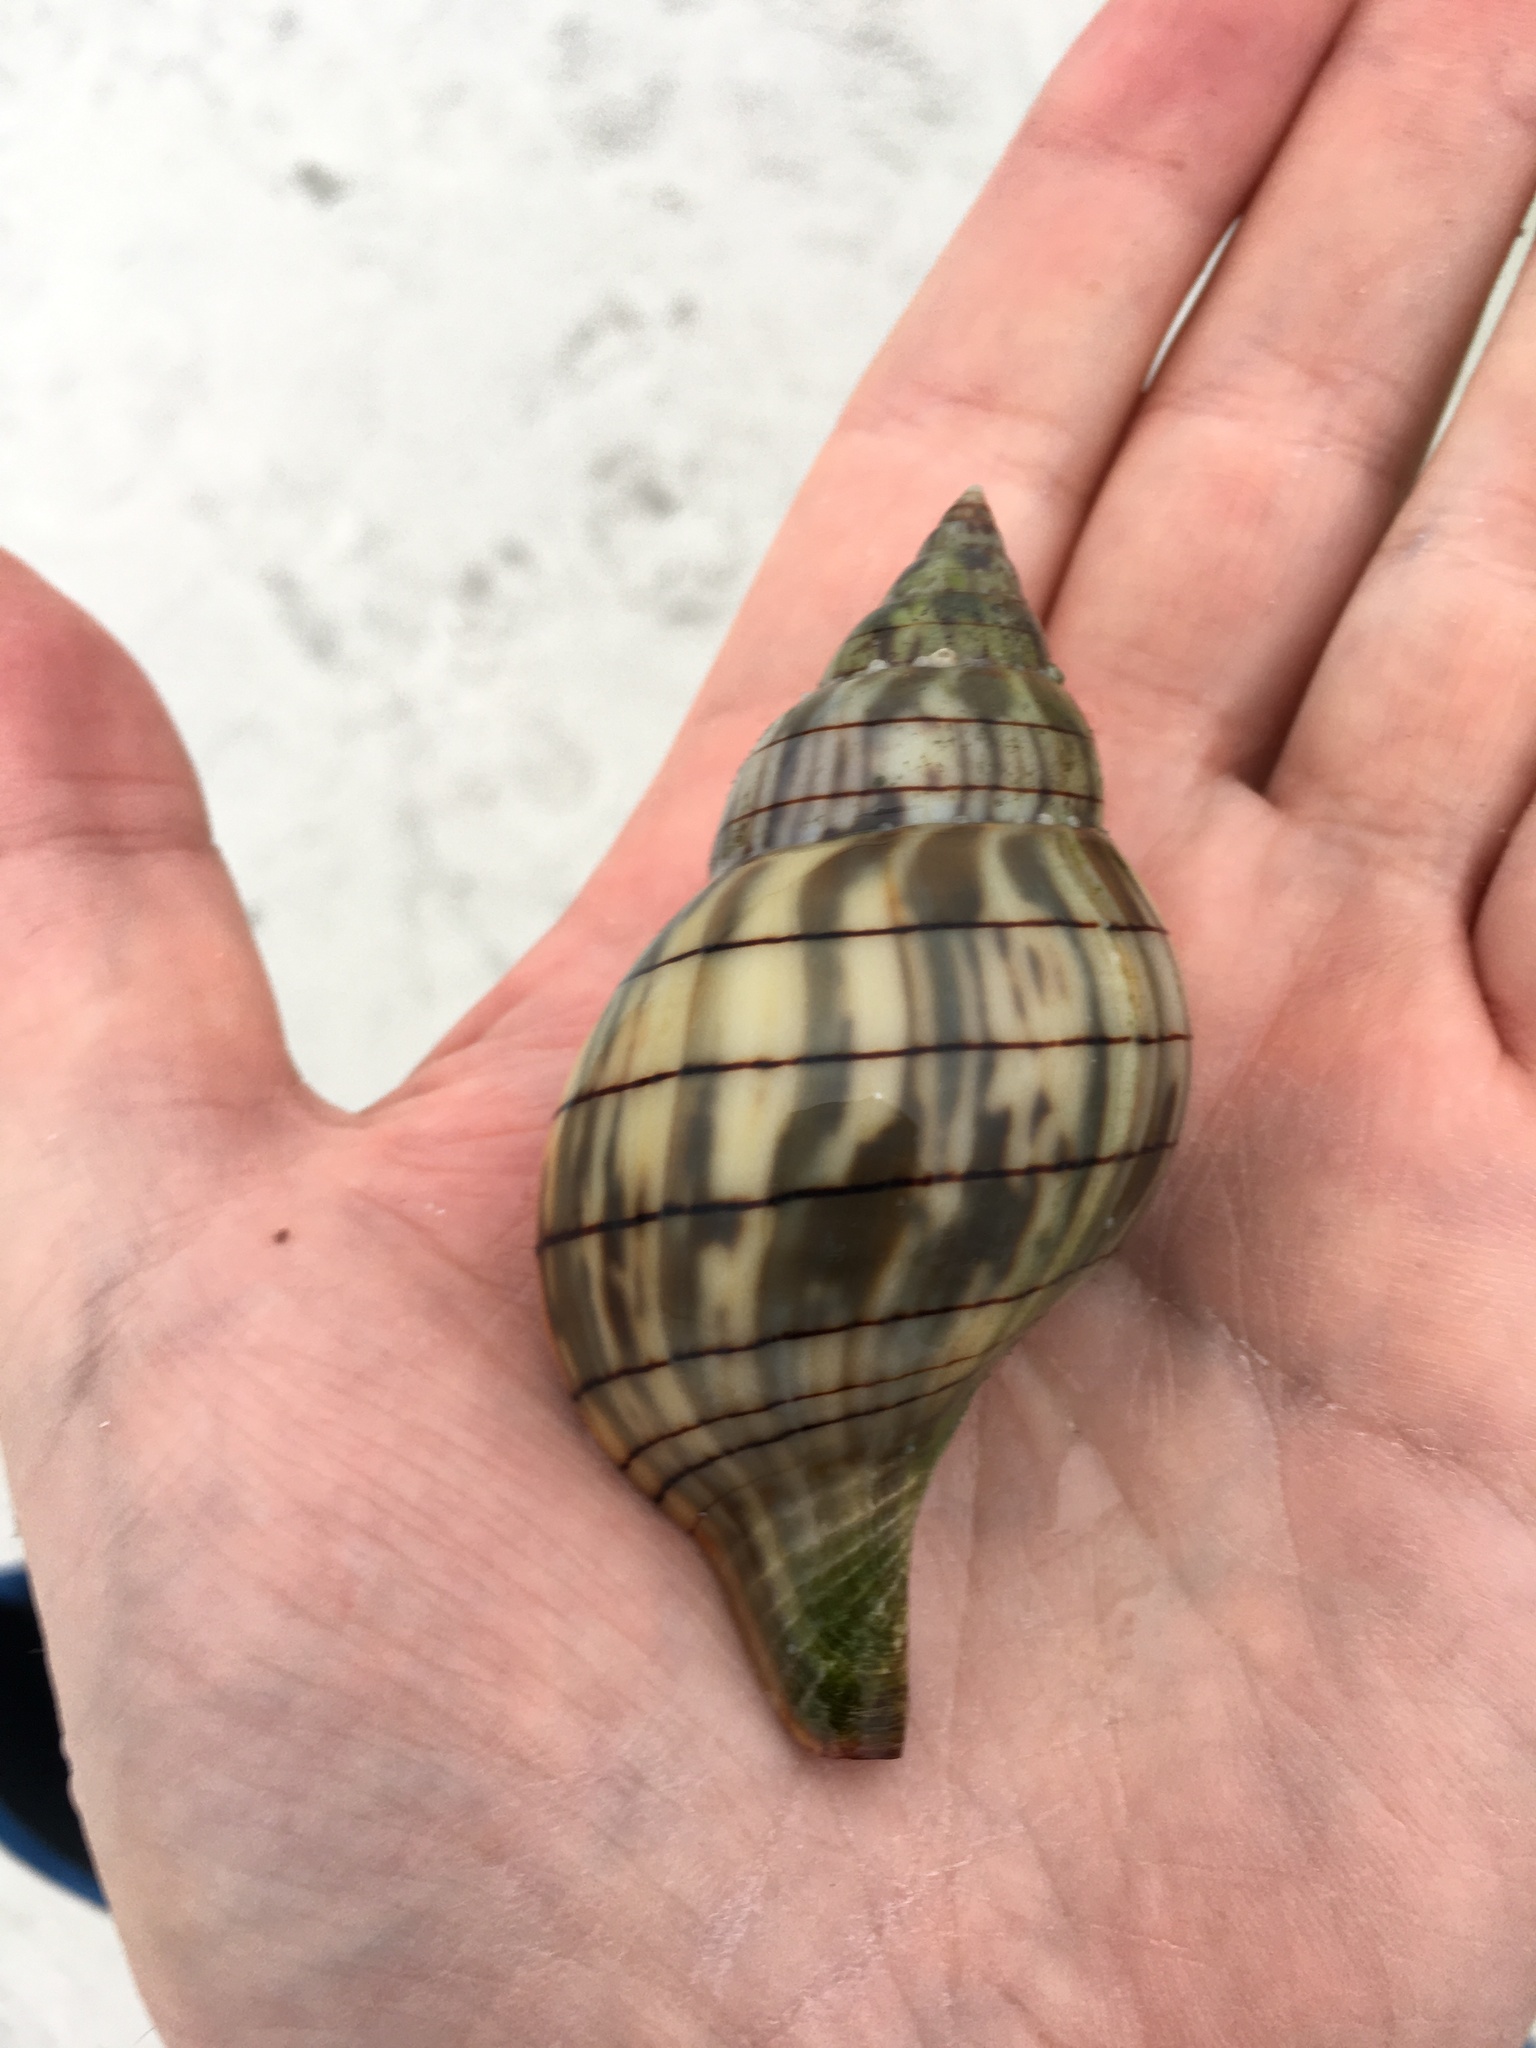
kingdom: Animalia
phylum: Mollusca
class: Gastropoda
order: Neogastropoda
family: Fasciolariidae
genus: Cinctura
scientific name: Cinctura hunteria
